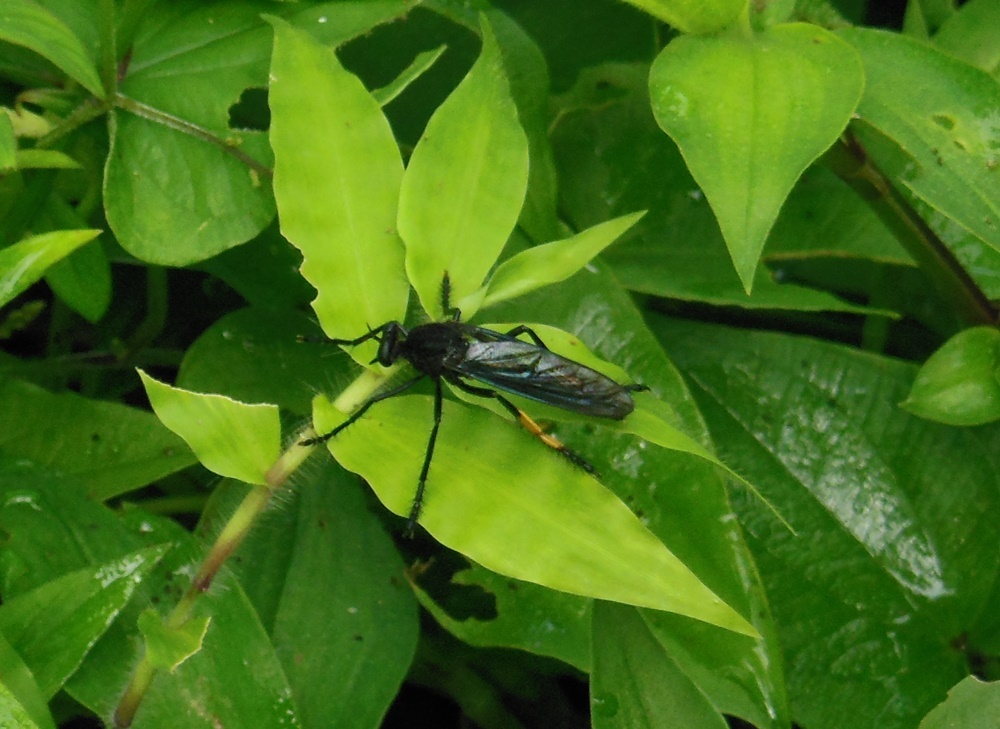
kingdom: Animalia
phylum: Arthropoda
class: Insecta
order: Diptera
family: Asilidae
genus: Archilestris
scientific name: Archilestris wenzeli
